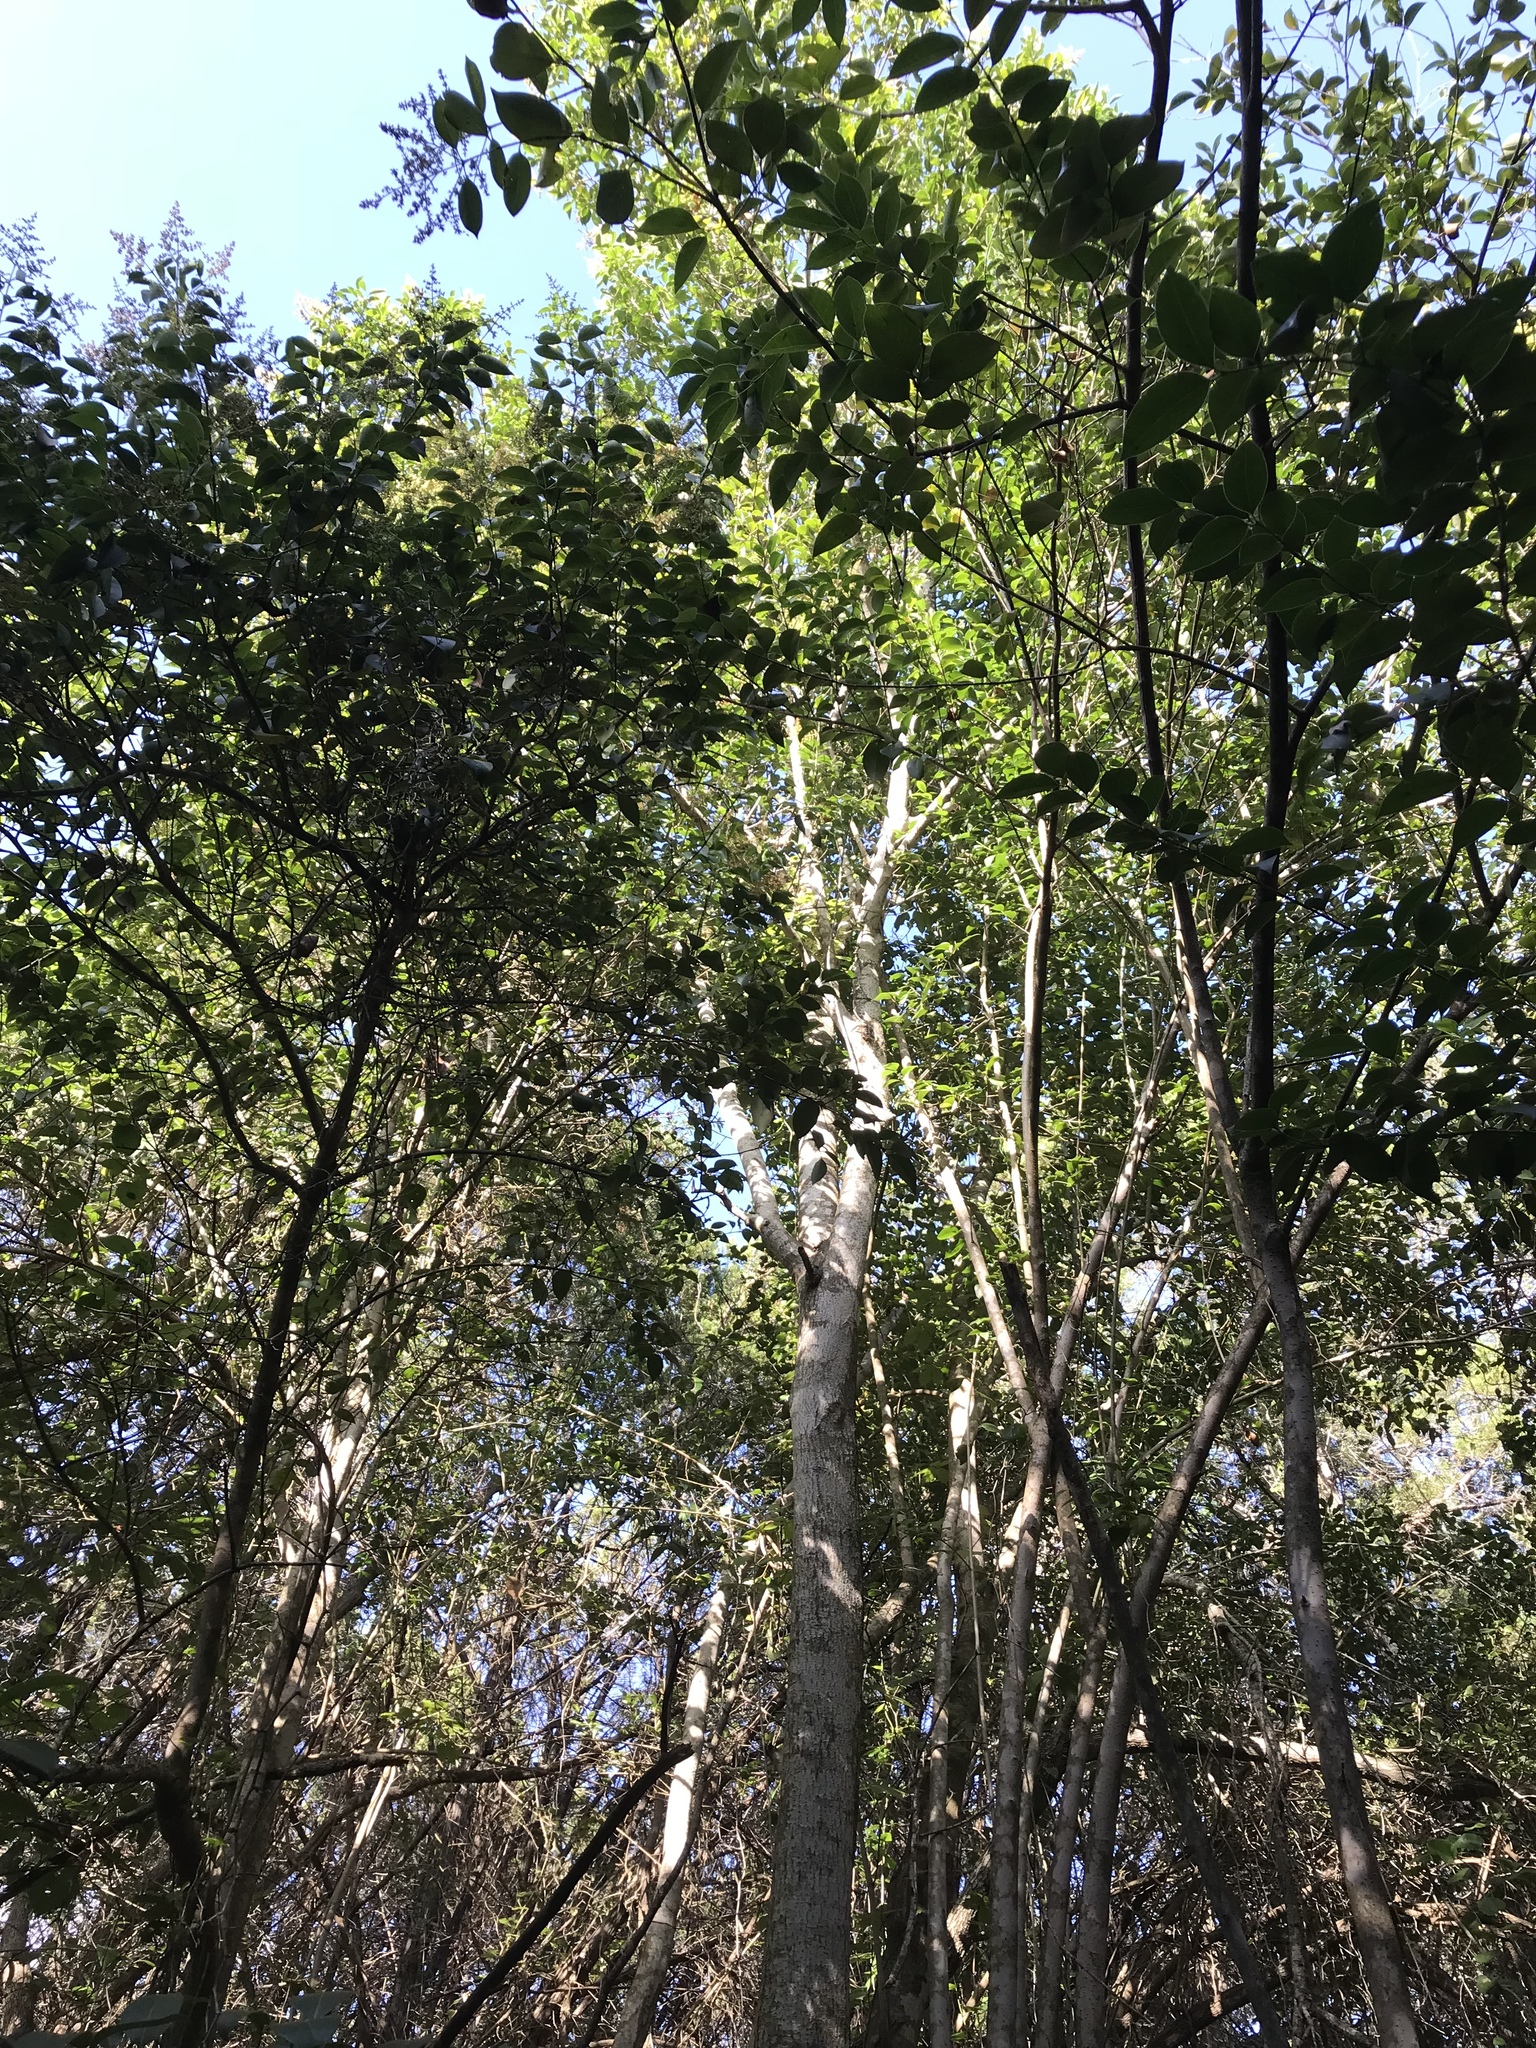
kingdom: Plantae
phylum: Tracheophyta
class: Magnoliopsida
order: Lamiales
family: Oleaceae
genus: Ligustrum
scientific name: Ligustrum lucidum
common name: Glossy privet
